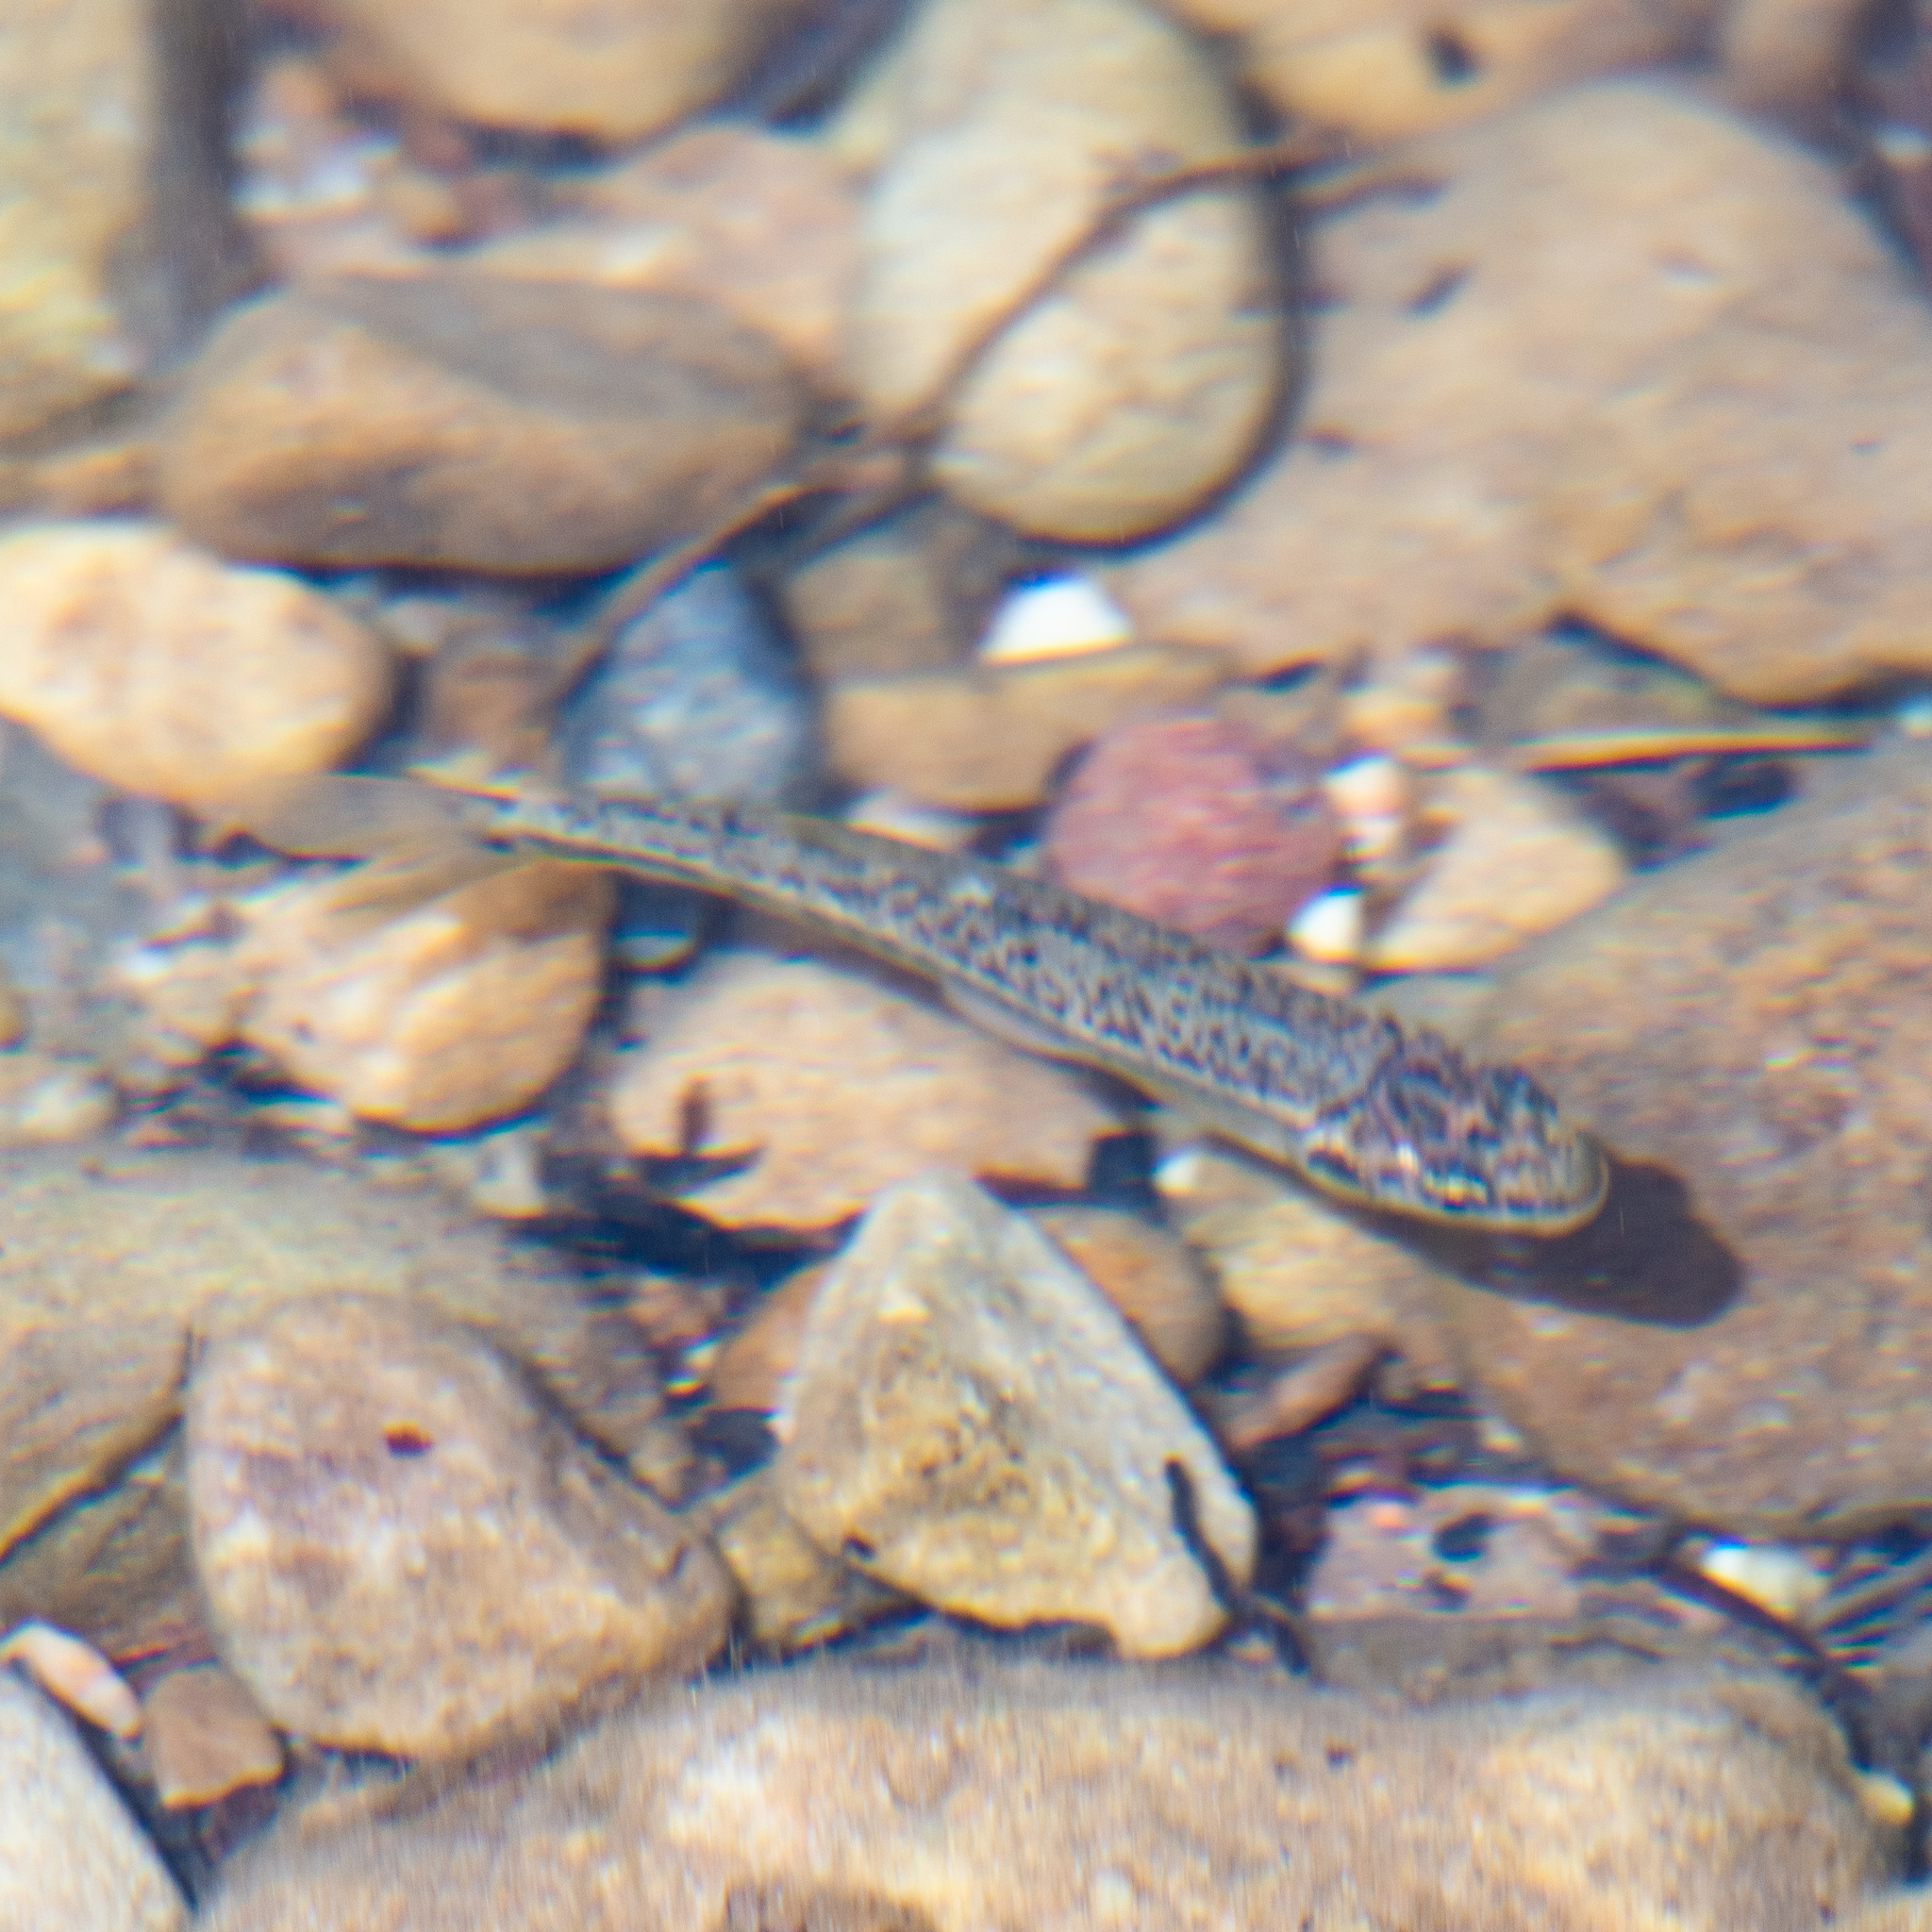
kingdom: Animalia
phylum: Chordata
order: Cypriniformes
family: Cyprinidae
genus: Phoxinus
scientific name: Phoxinus bigerri
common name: Adour minnow
